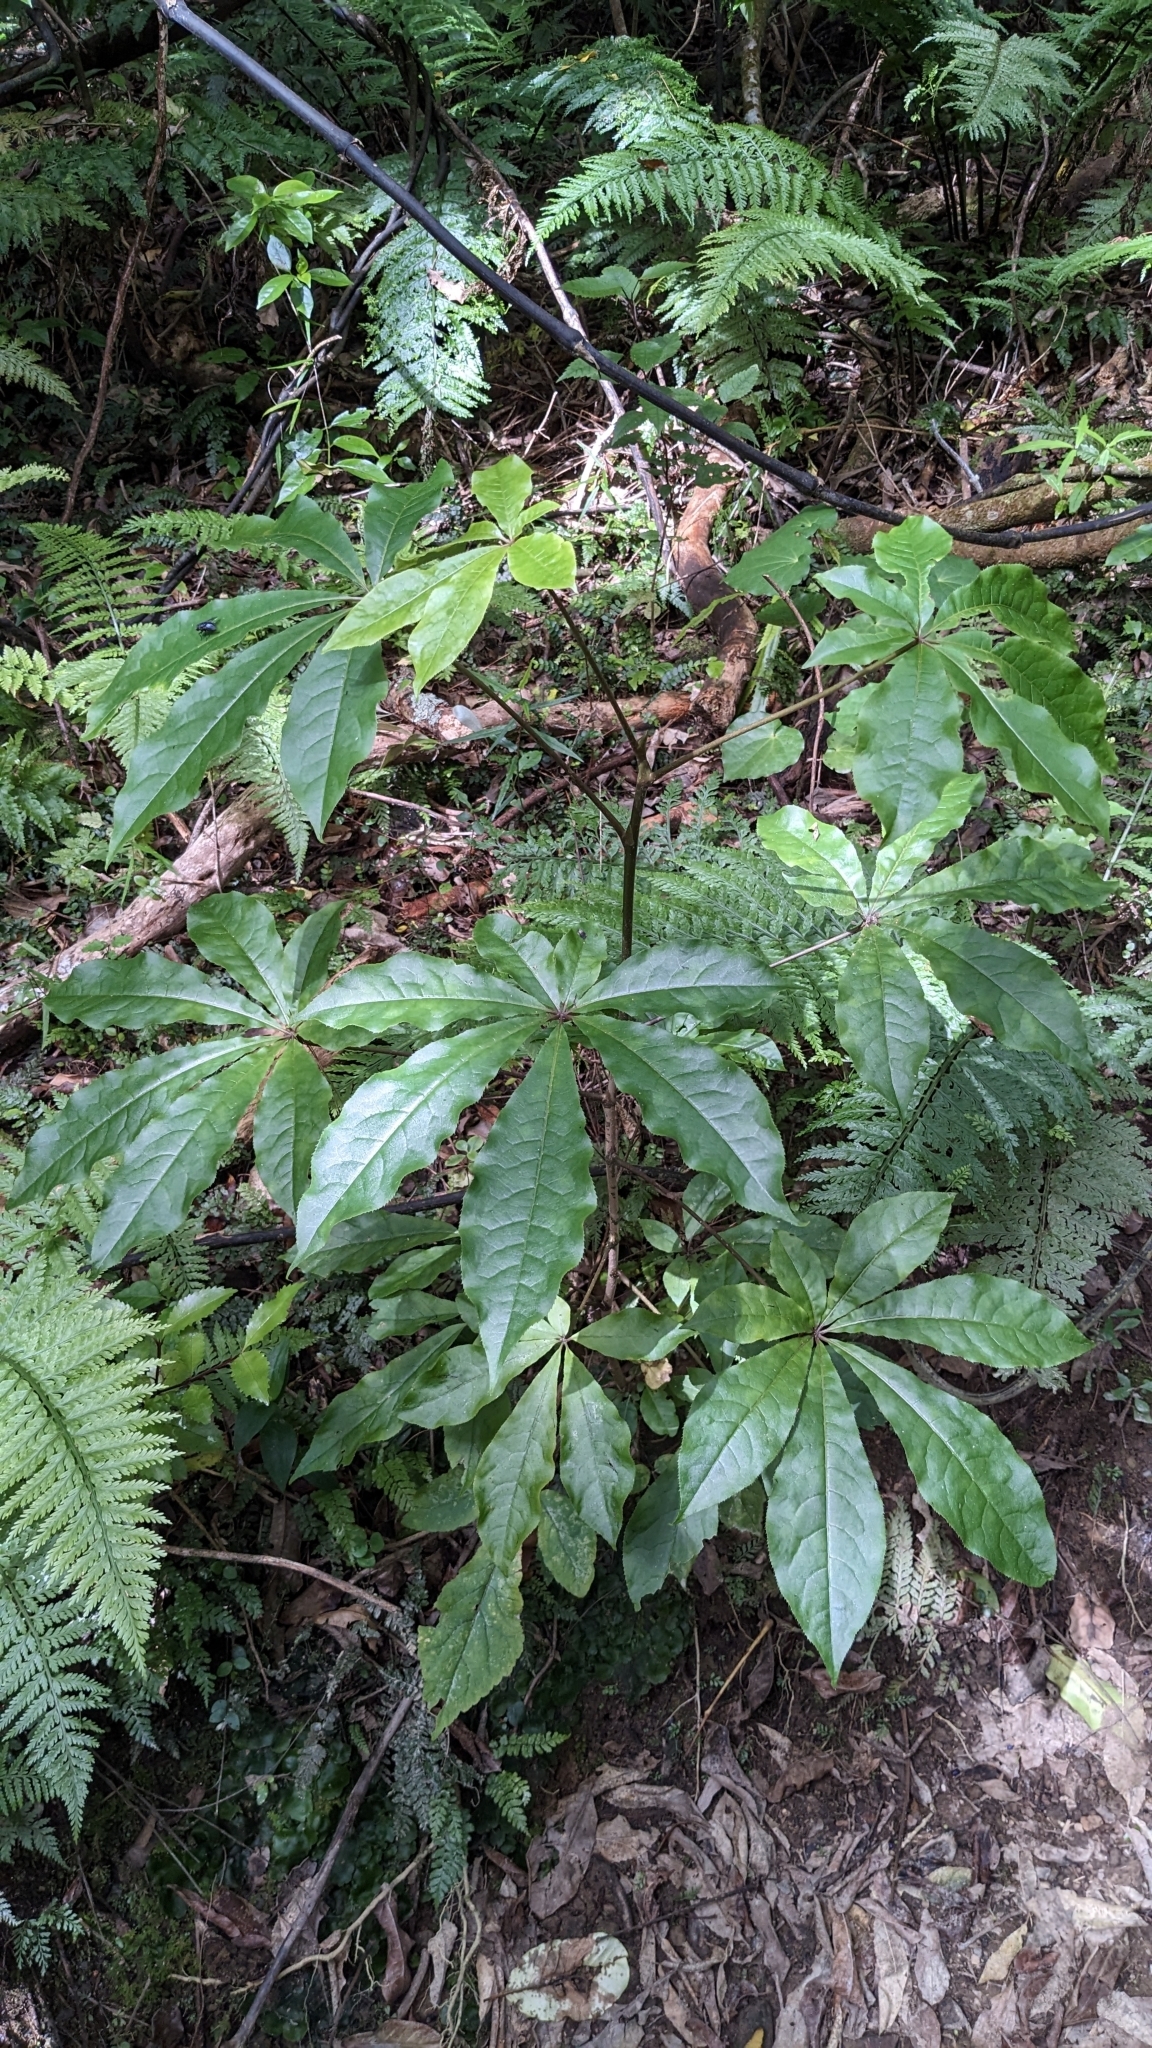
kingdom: Plantae
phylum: Tracheophyta
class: Magnoliopsida
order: Apiales
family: Araliaceae
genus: Schefflera
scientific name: Schefflera digitata
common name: Pate
